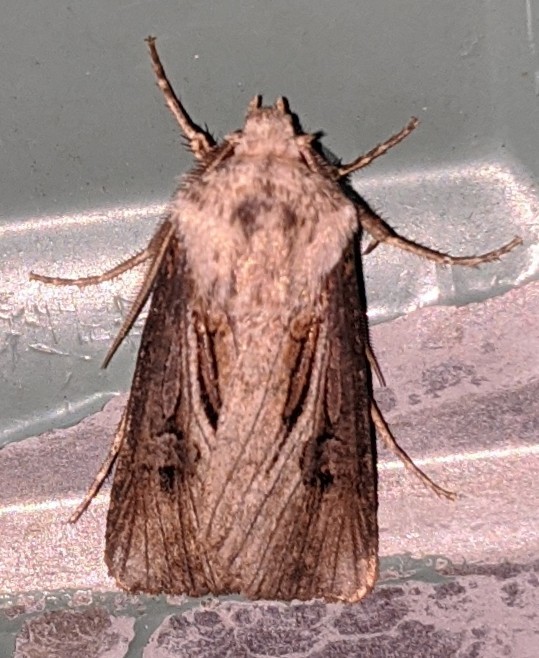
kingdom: Animalia
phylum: Arthropoda
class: Insecta
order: Lepidoptera
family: Noctuidae
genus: Agrotis
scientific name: Agrotis venerabilis
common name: Venerable dart
